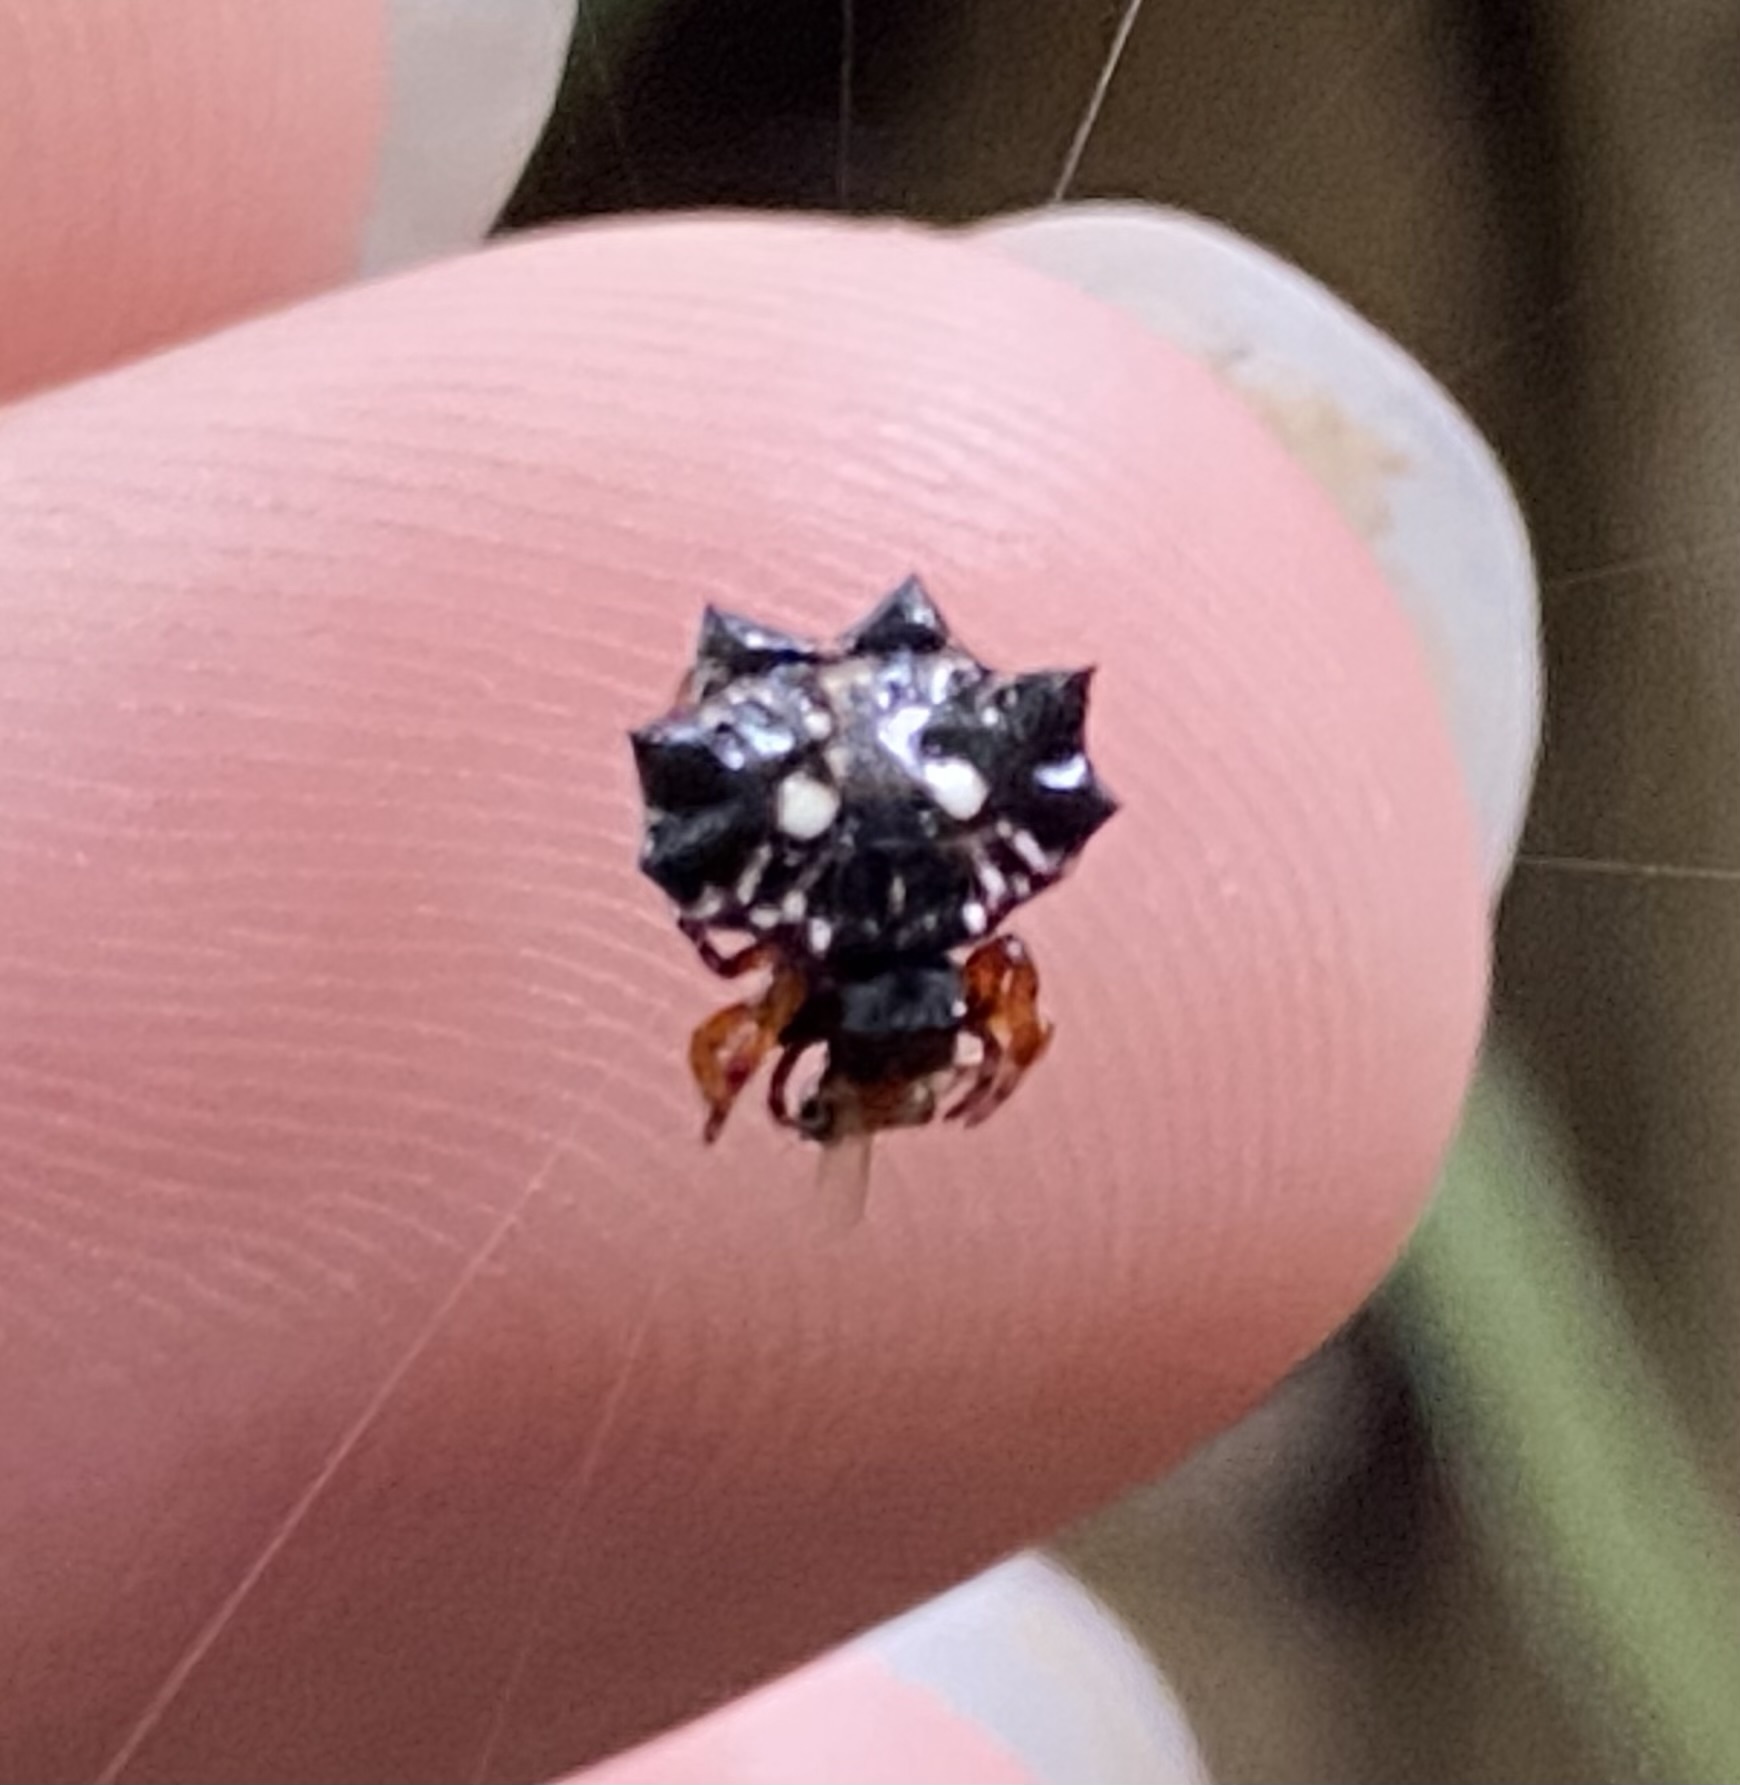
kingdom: Animalia
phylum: Arthropoda
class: Arachnida
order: Araneae
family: Araneidae
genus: Thelacantha
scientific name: Thelacantha brevispina
